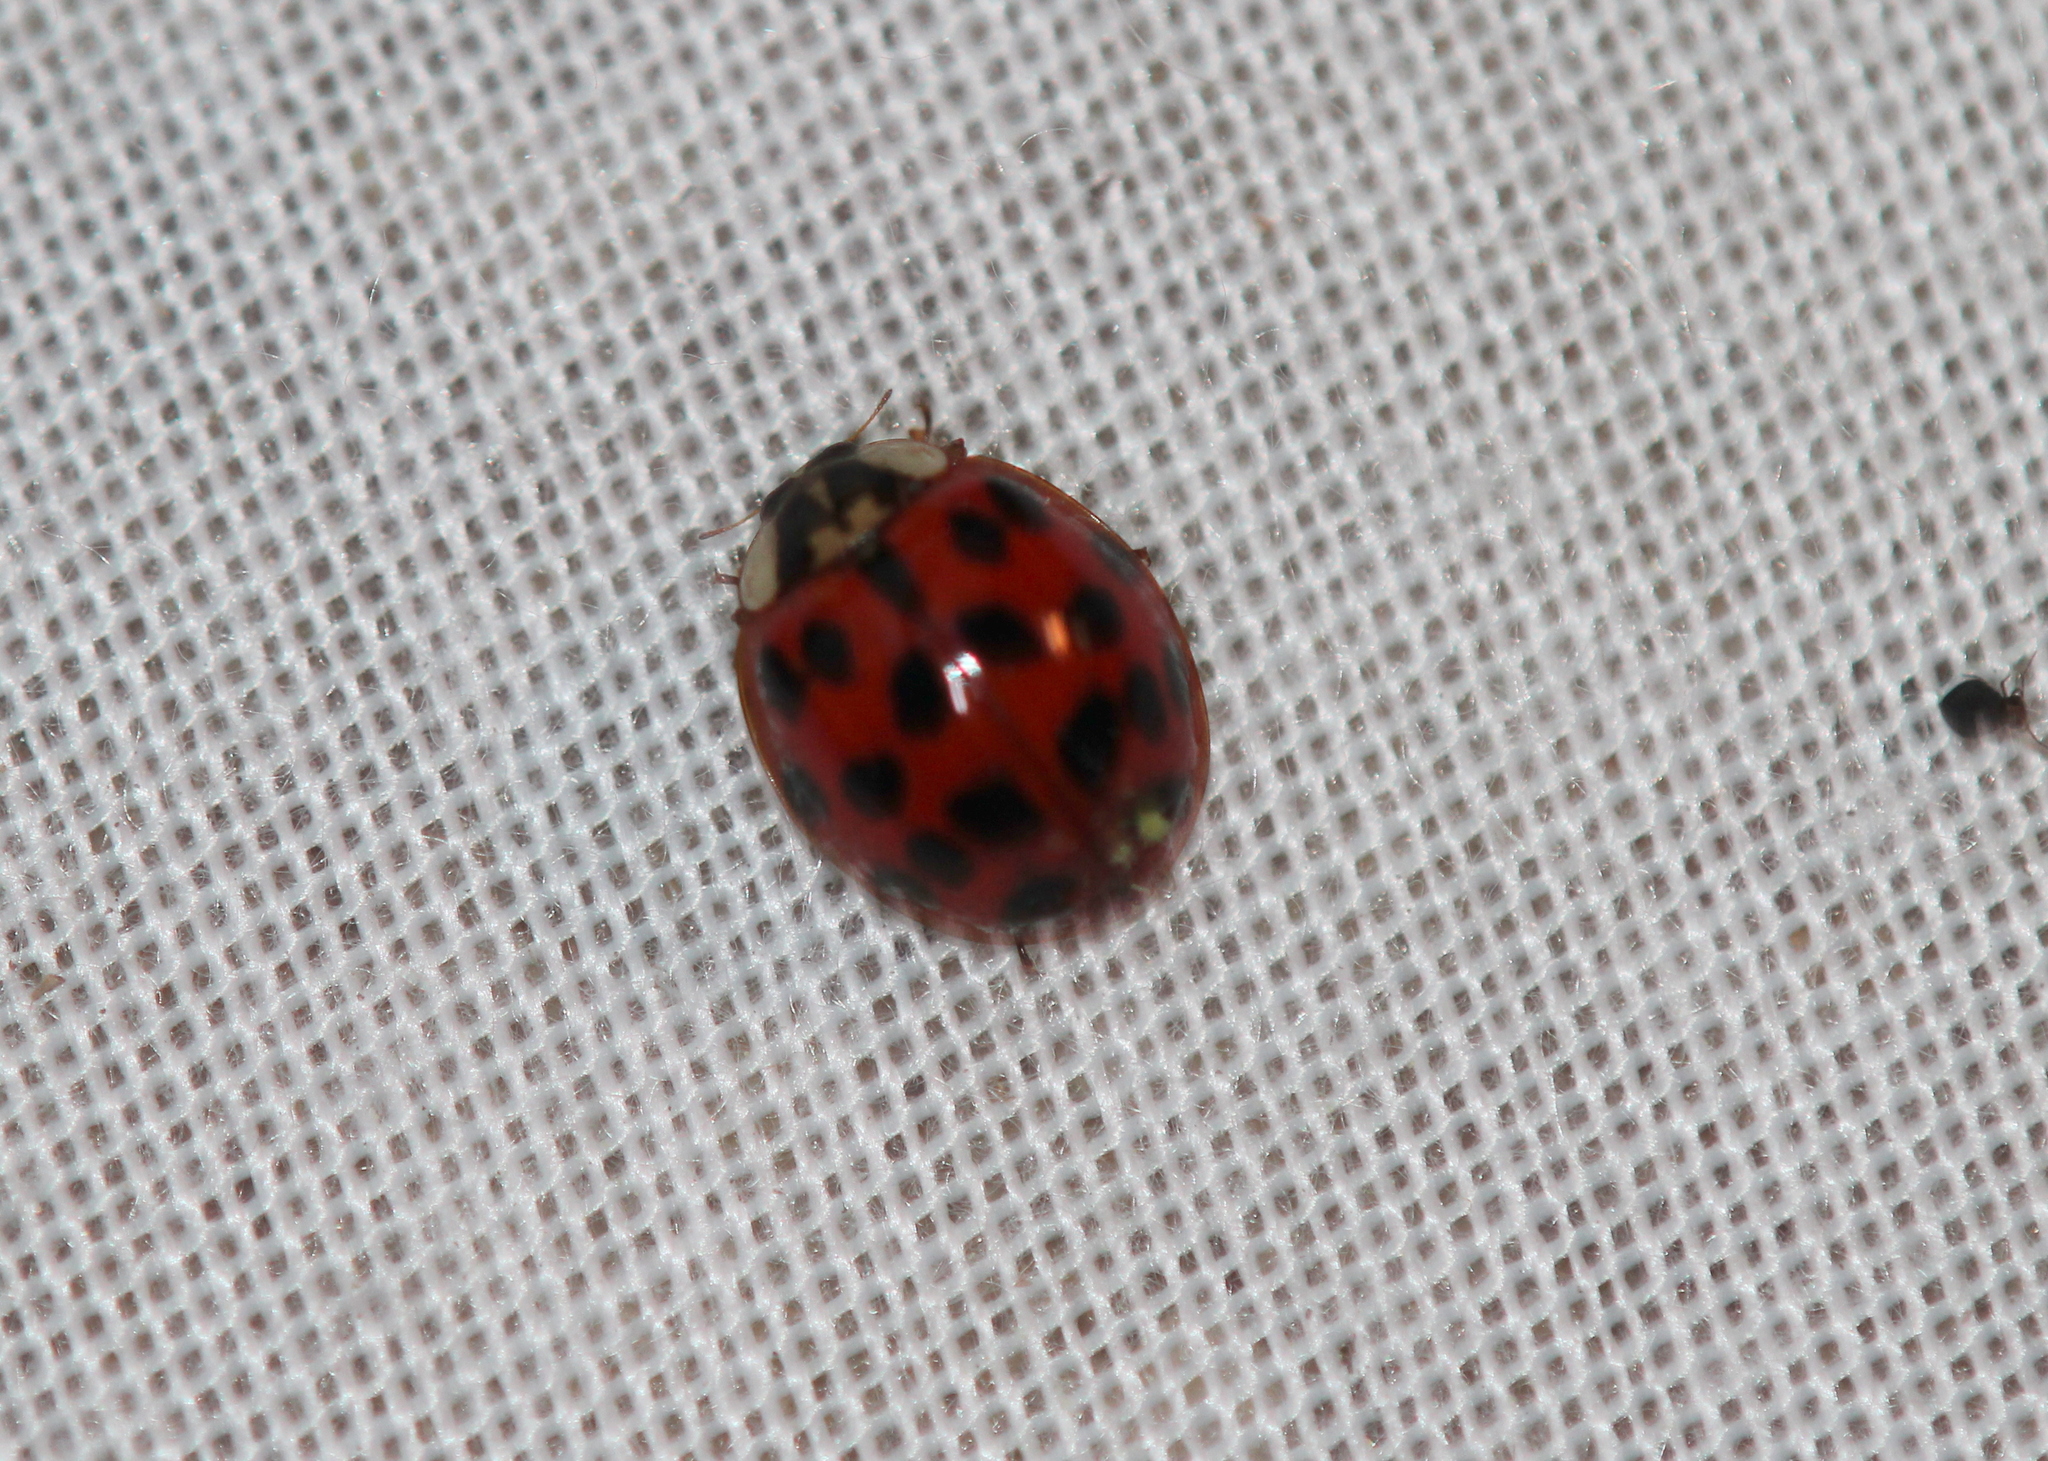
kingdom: Animalia
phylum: Arthropoda
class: Insecta
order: Coleoptera
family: Coccinellidae
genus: Harmonia
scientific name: Harmonia axyridis
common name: Harlequin ladybird
